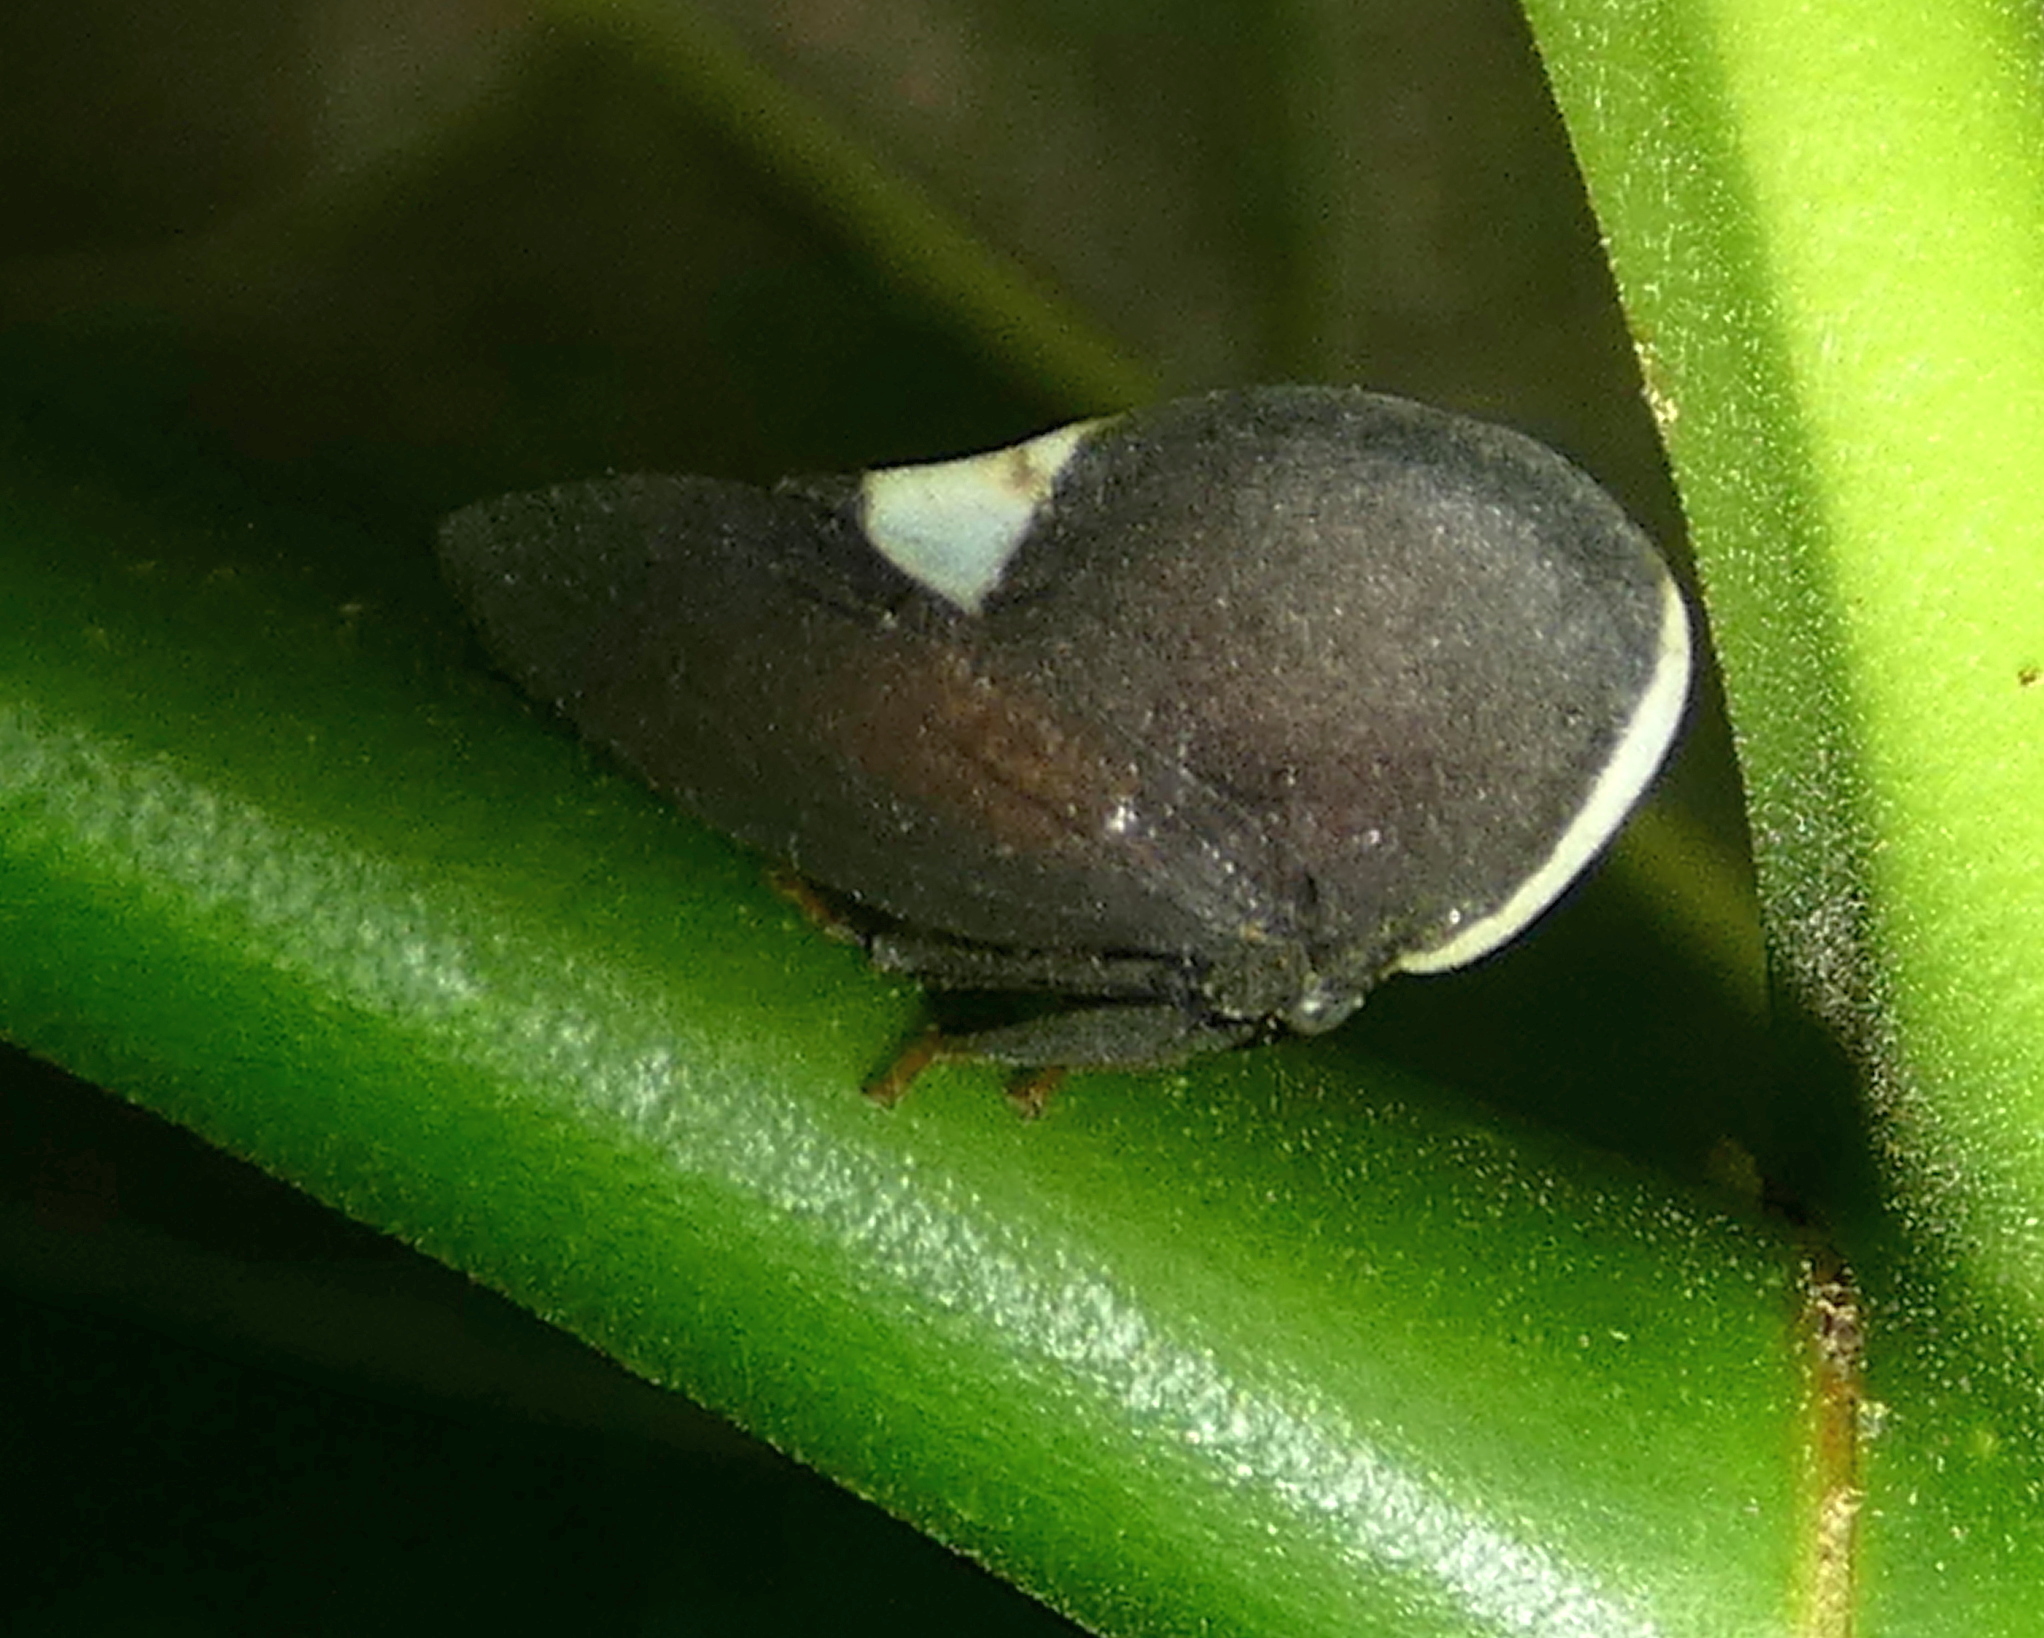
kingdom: Animalia
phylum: Arthropoda
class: Insecta
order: Hemiptera
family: Membracidae
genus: Membracis
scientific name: Membracis dorsata
